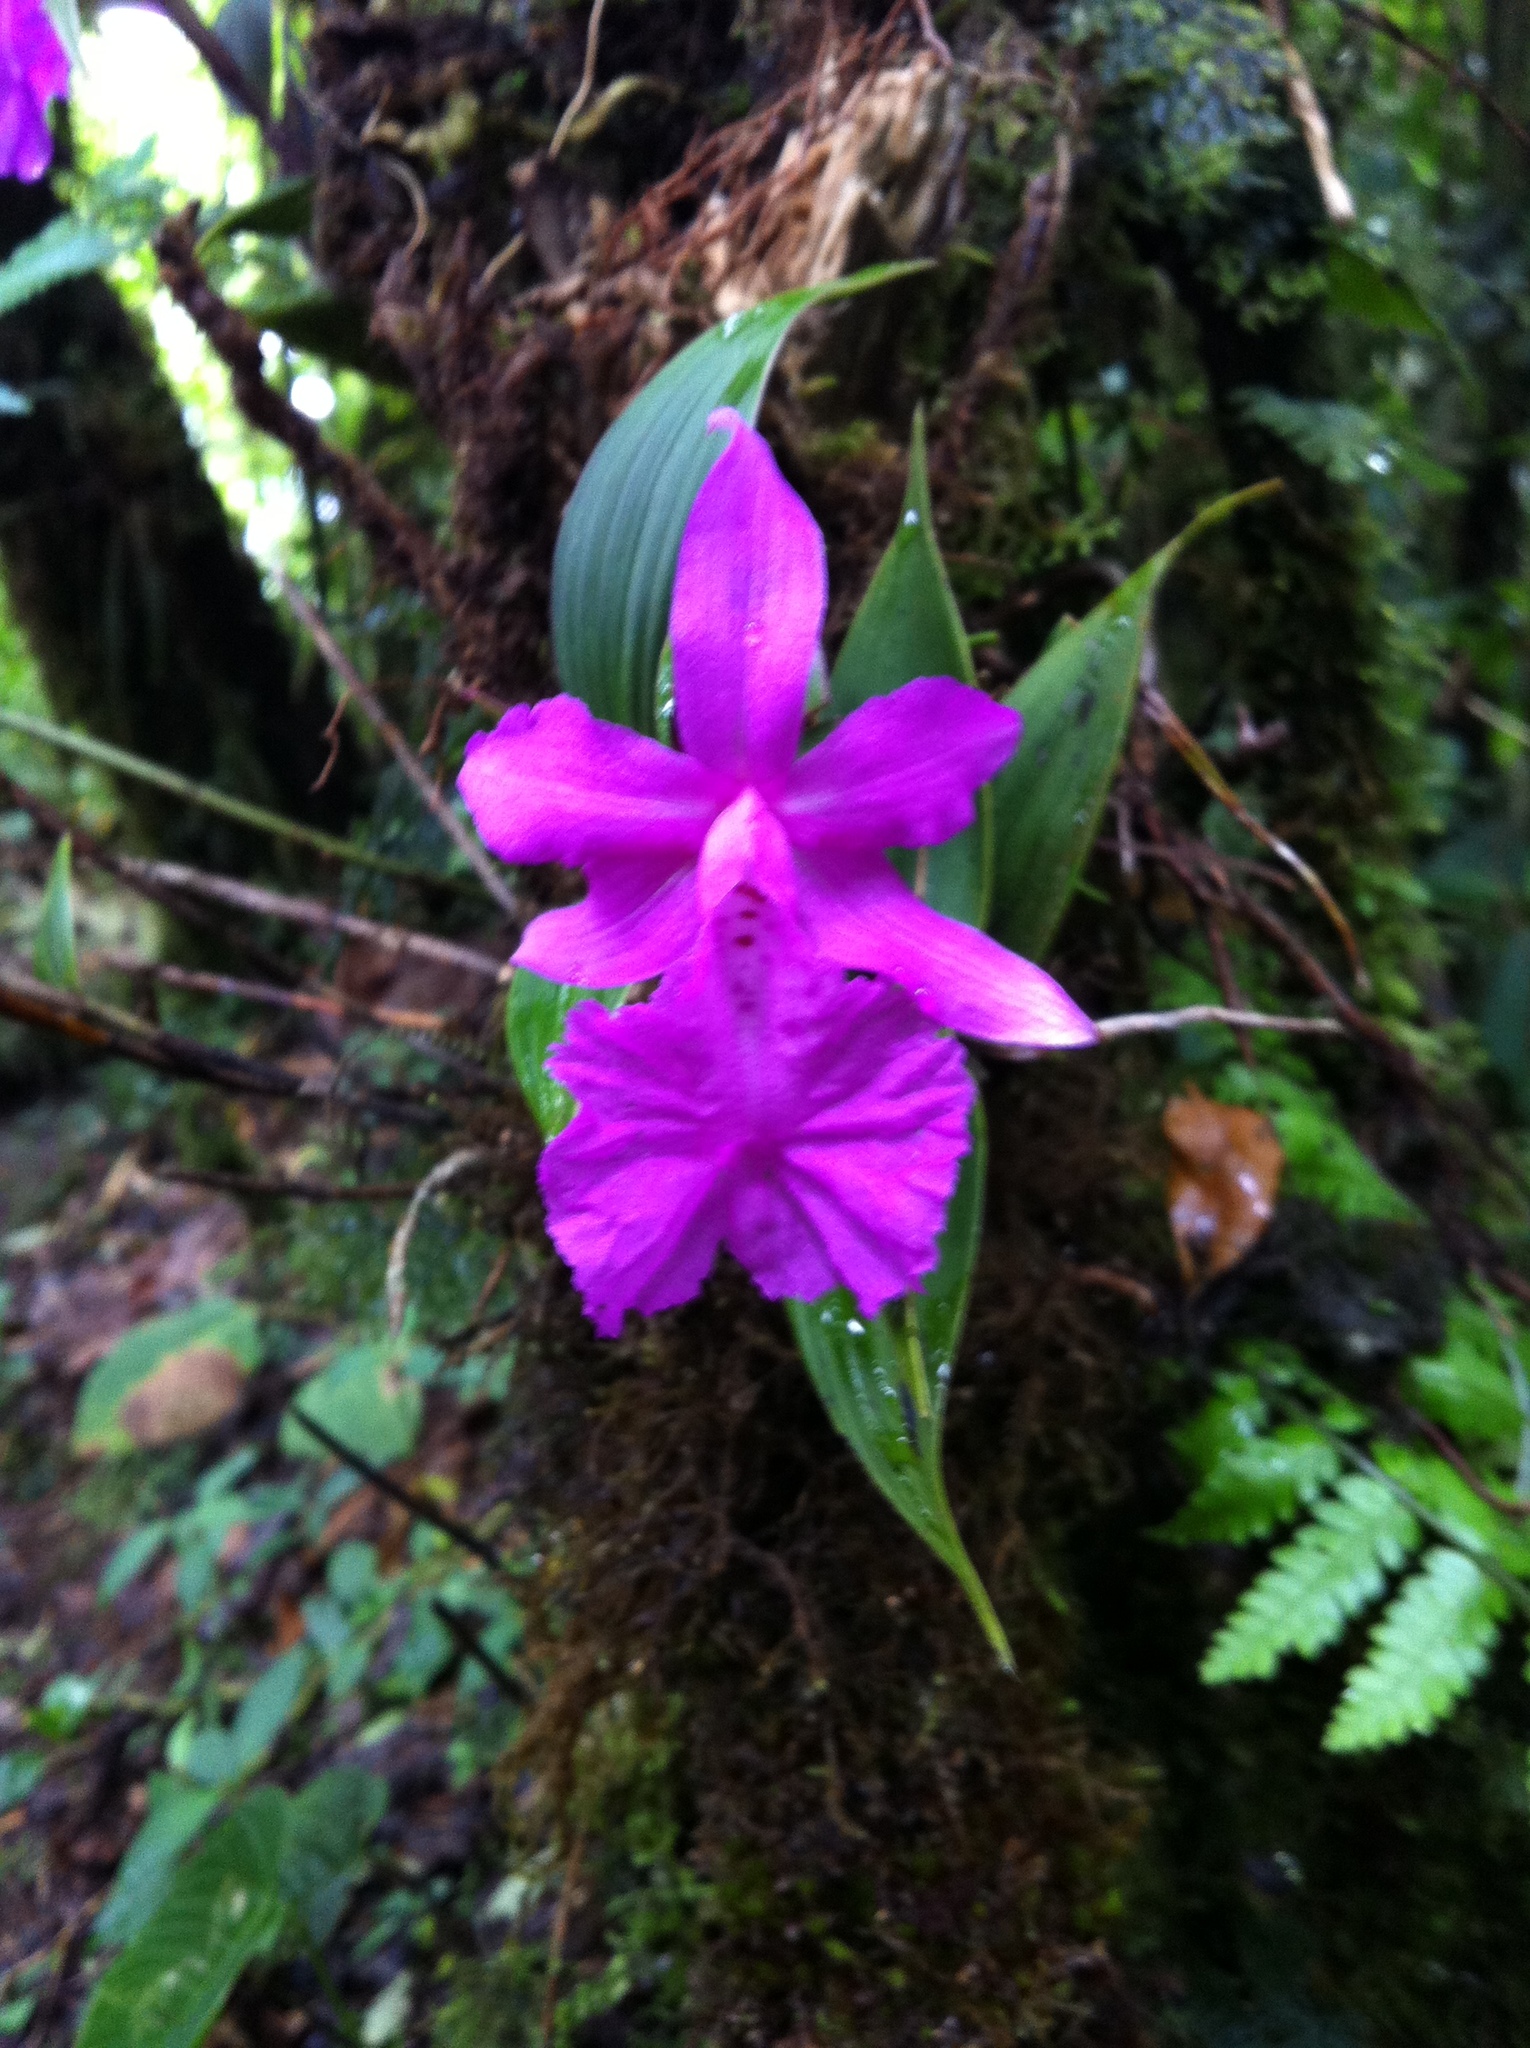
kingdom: Plantae
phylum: Tracheophyta
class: Liliopsida
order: Asparagales
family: Orchidaceae
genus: Sobralia
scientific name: Sobralia amabilis
